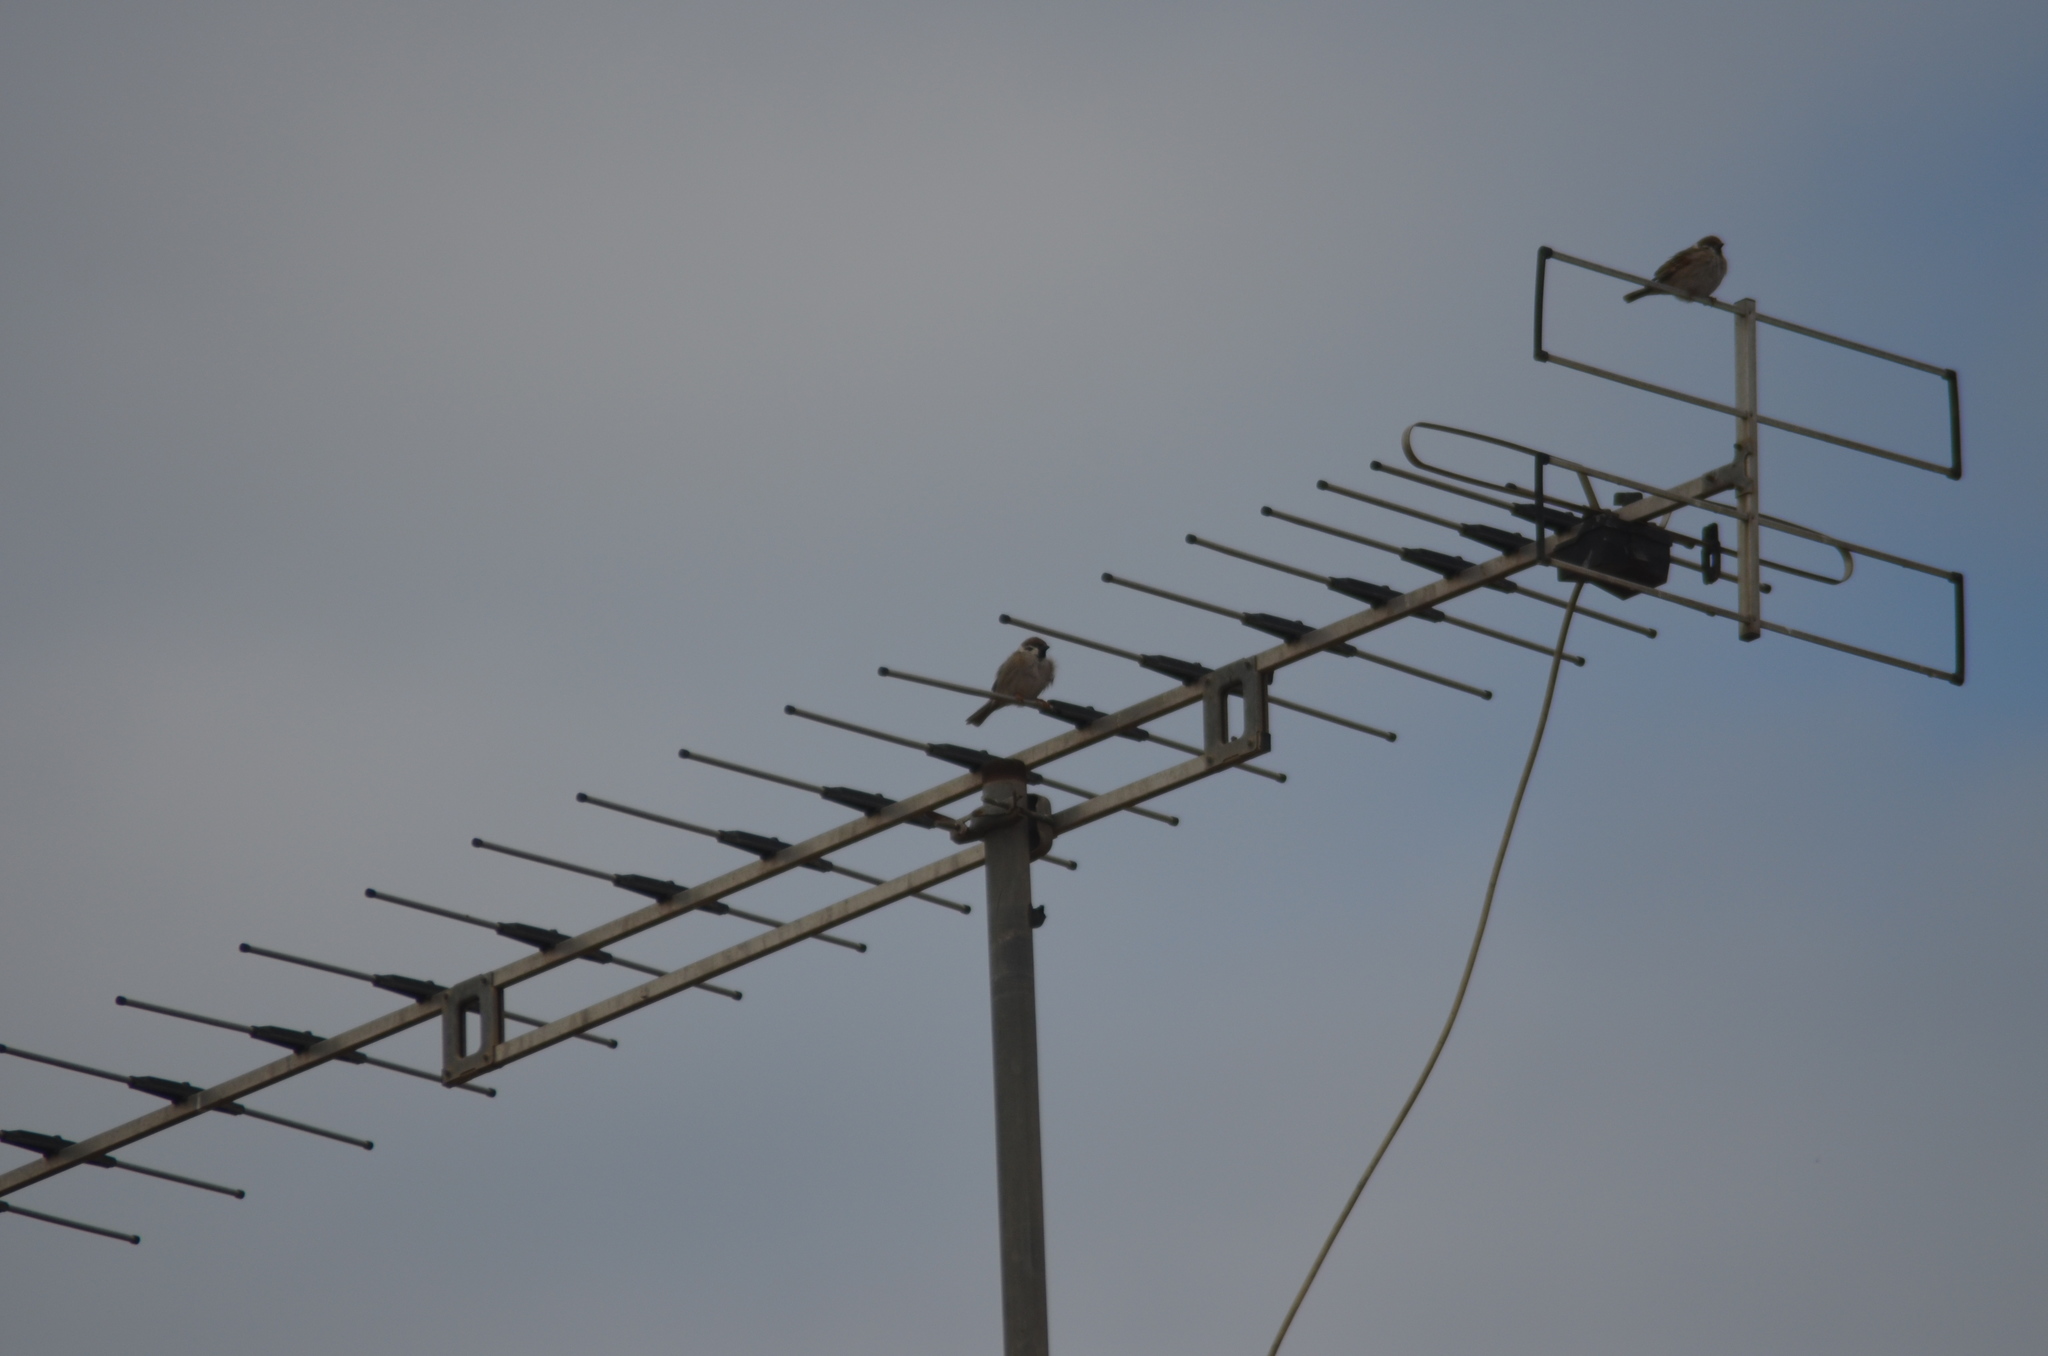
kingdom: Animalia
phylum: Chordata
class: Aves
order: Passeriformes
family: Passeridae
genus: Passer
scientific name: Passer montanus
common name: Eurasian tree sparrow
